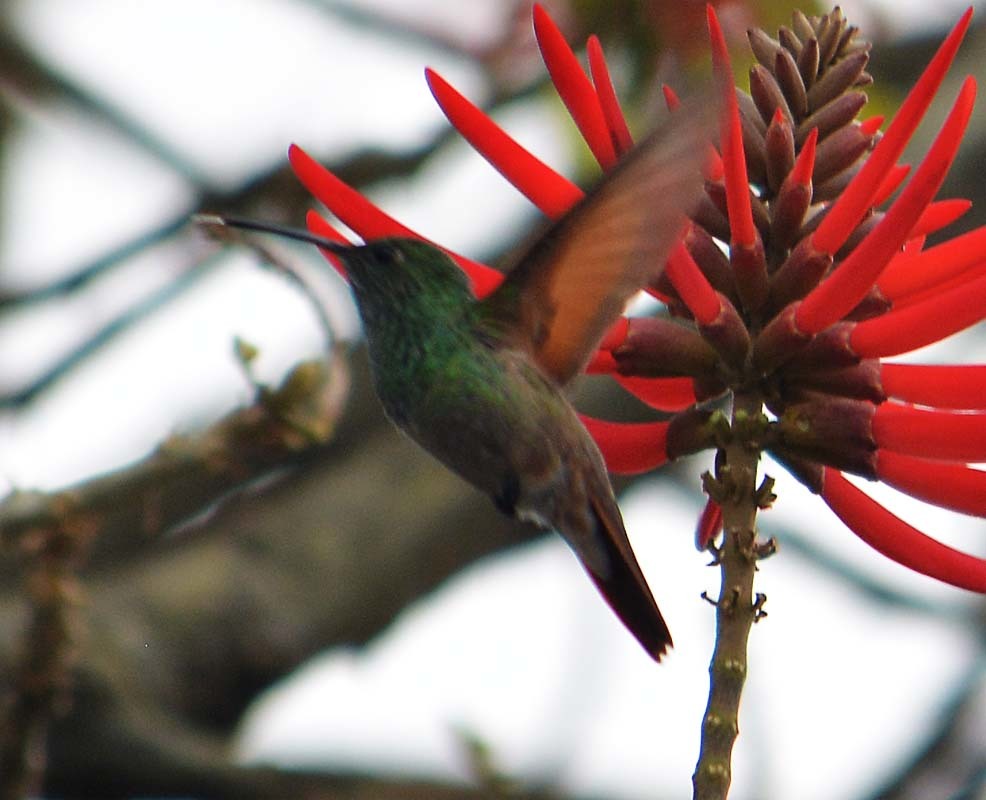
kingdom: Animalia
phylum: Chordata
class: Aves
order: Apodiformes
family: Trochilidae
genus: Saucerottia
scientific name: Saucerottia beryllina
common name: Berylline hummingbird
